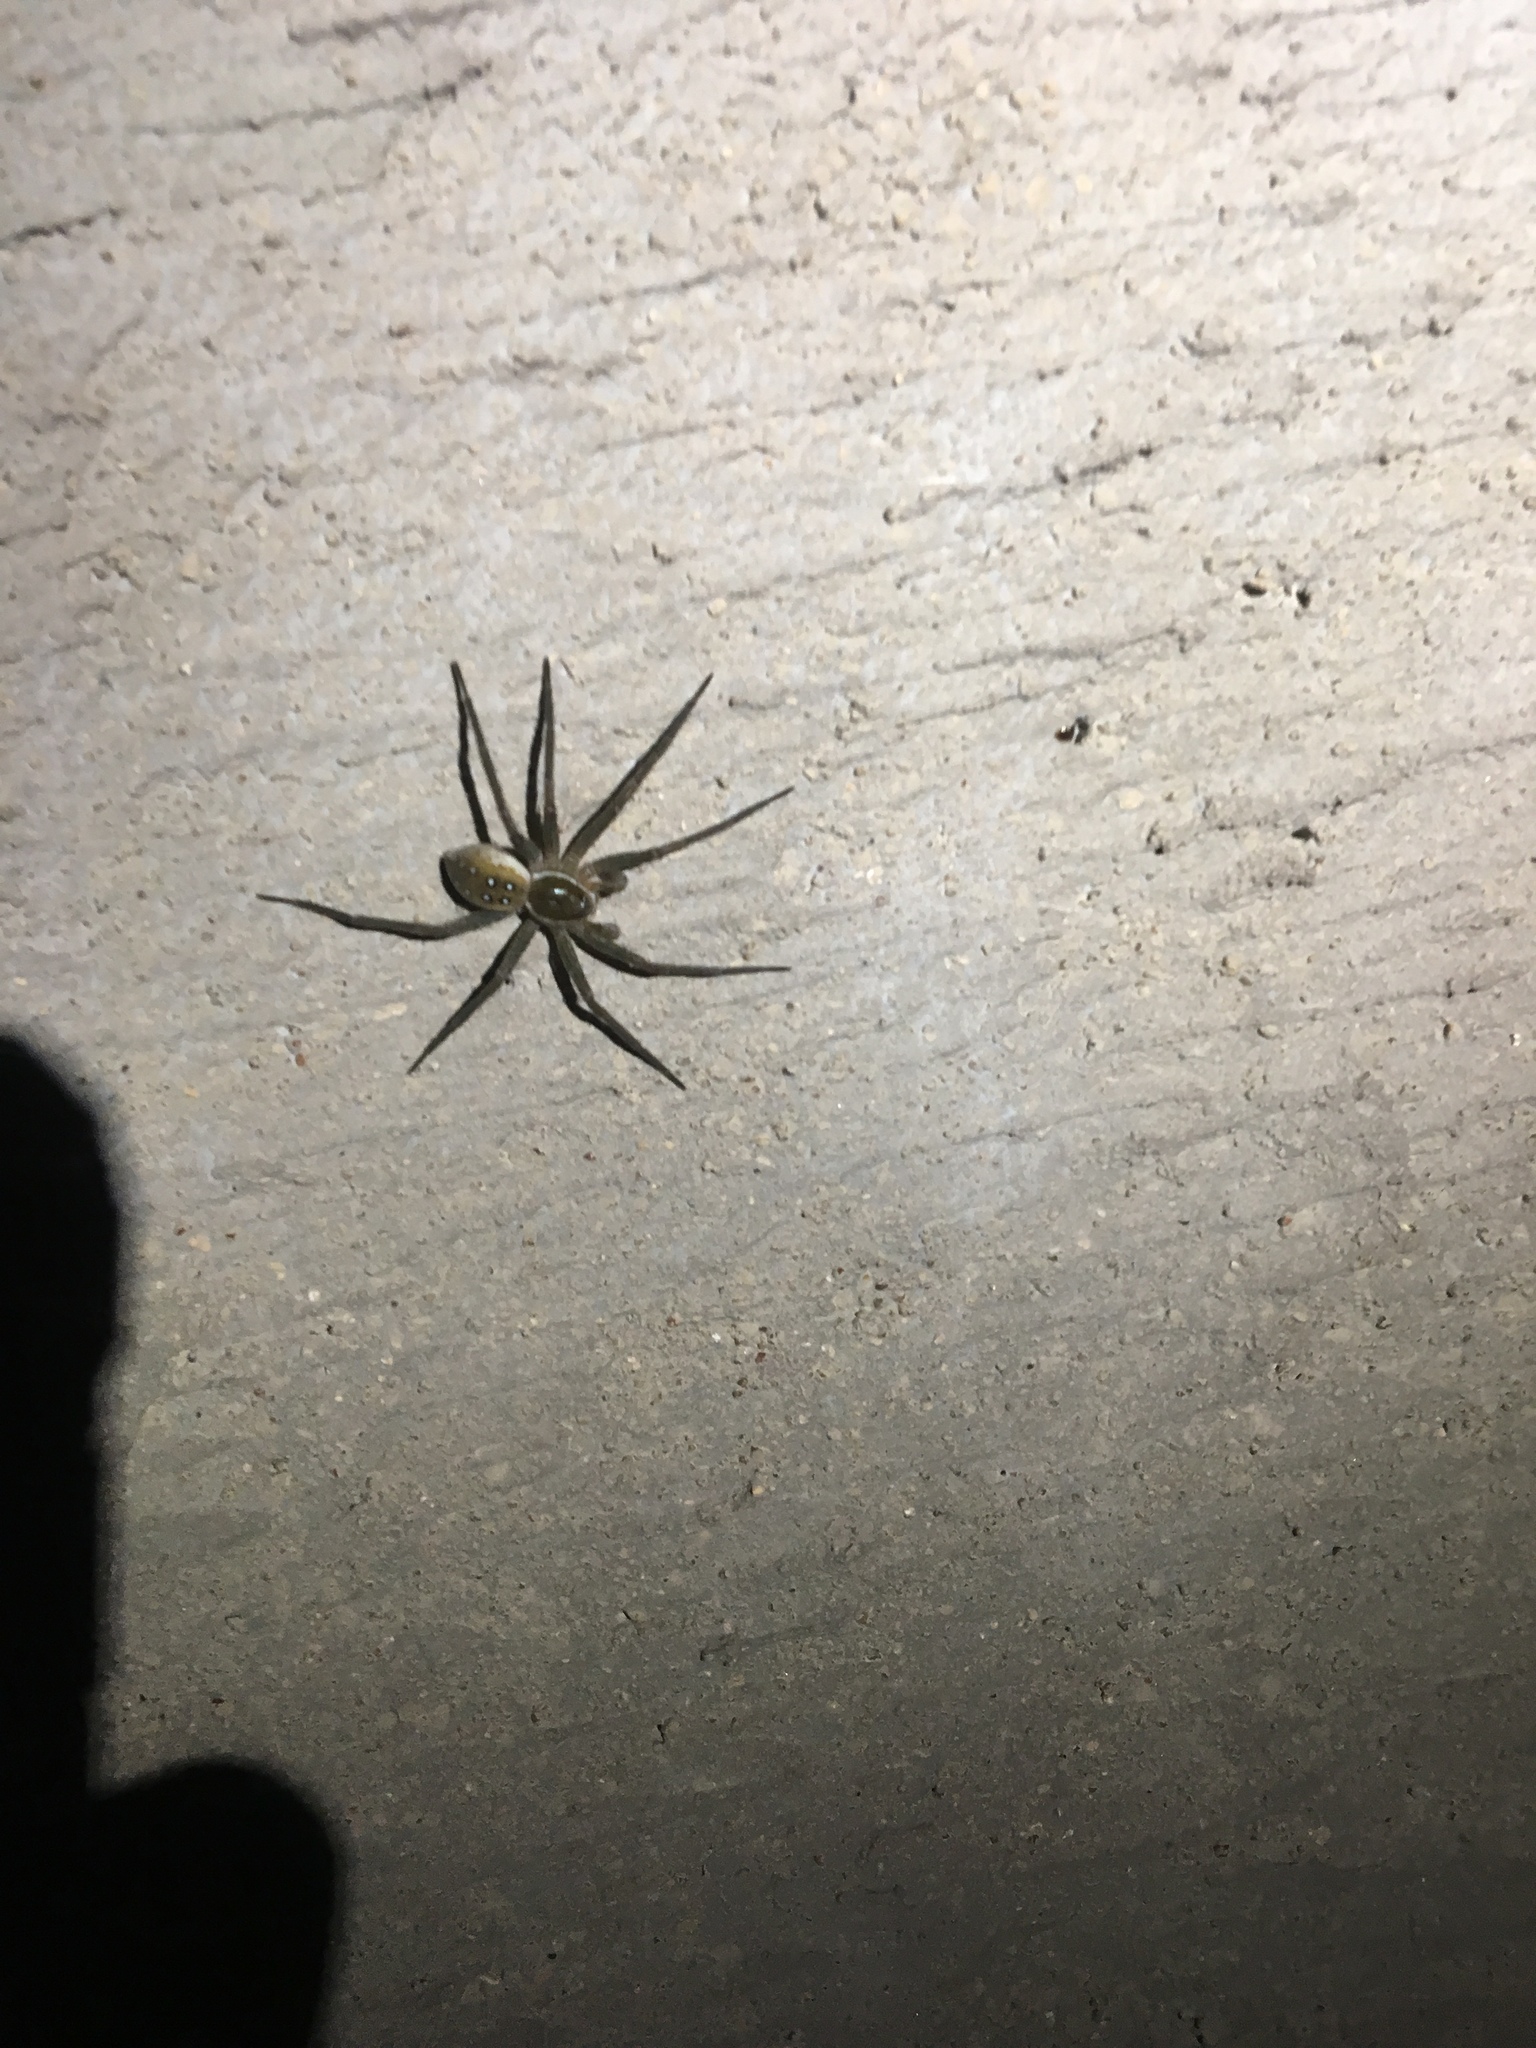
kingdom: Animalia
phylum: Arthropoda
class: Arachnida
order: Araneae
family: Pisauridae
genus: Dolomedes
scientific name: Dolomedes triton
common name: Six-spotted fishing spider
